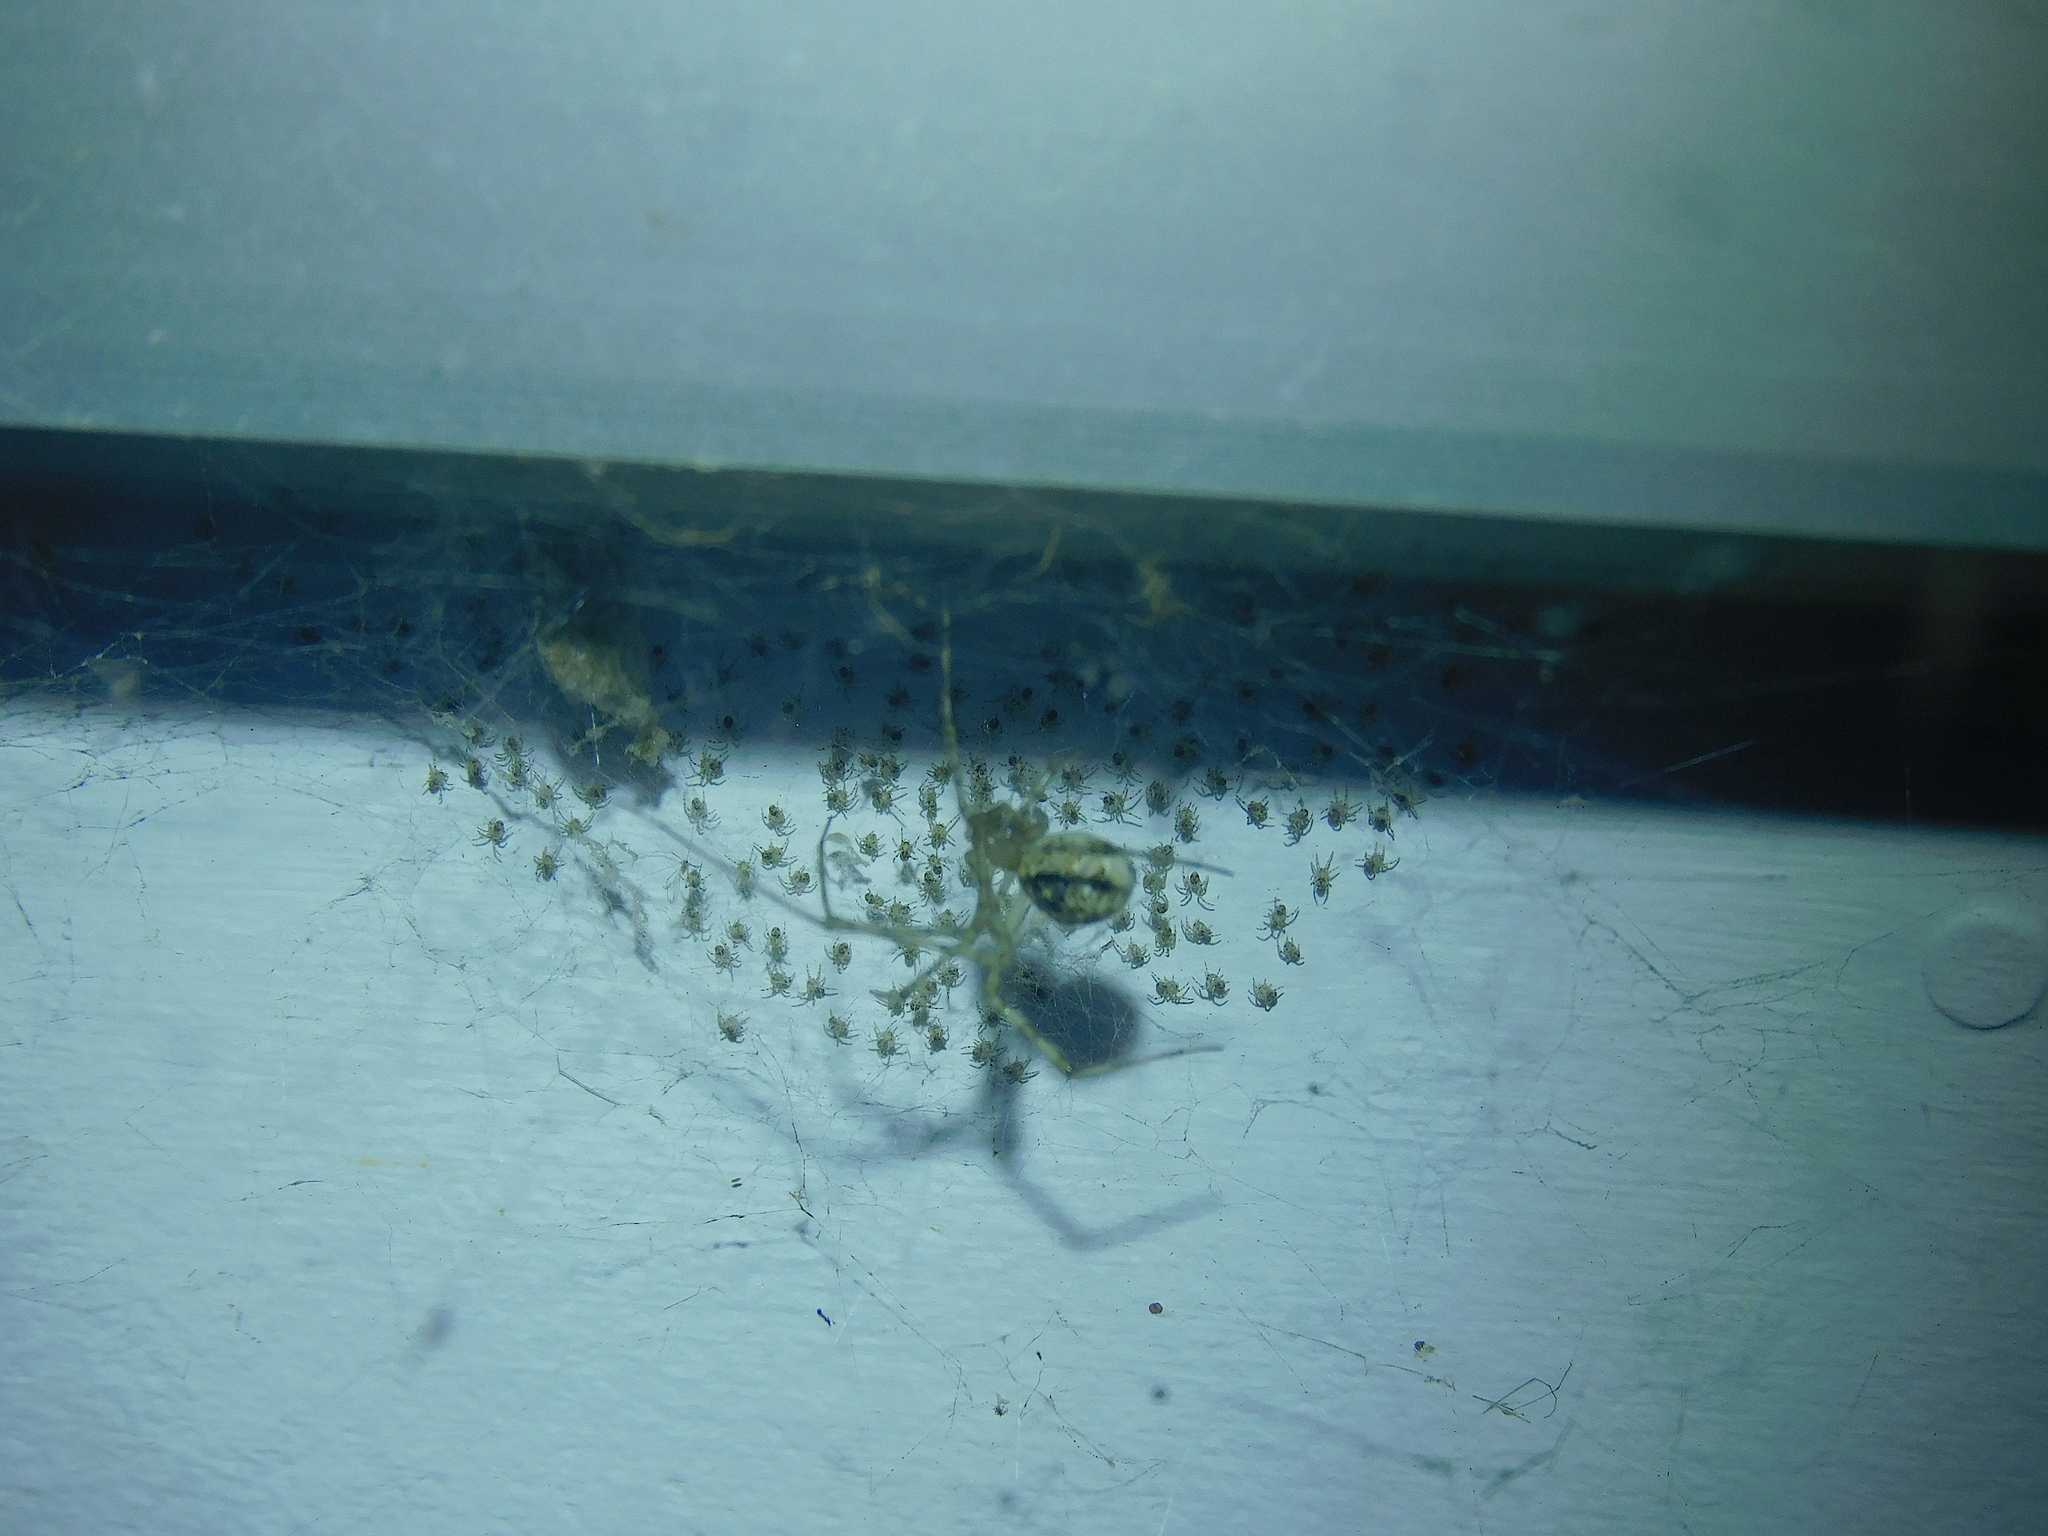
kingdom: Animalia
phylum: Arthropoda
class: Arachnida
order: Araneae
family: Theridiidae
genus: Cryptachaea
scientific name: Cryptachaea gigantipes
